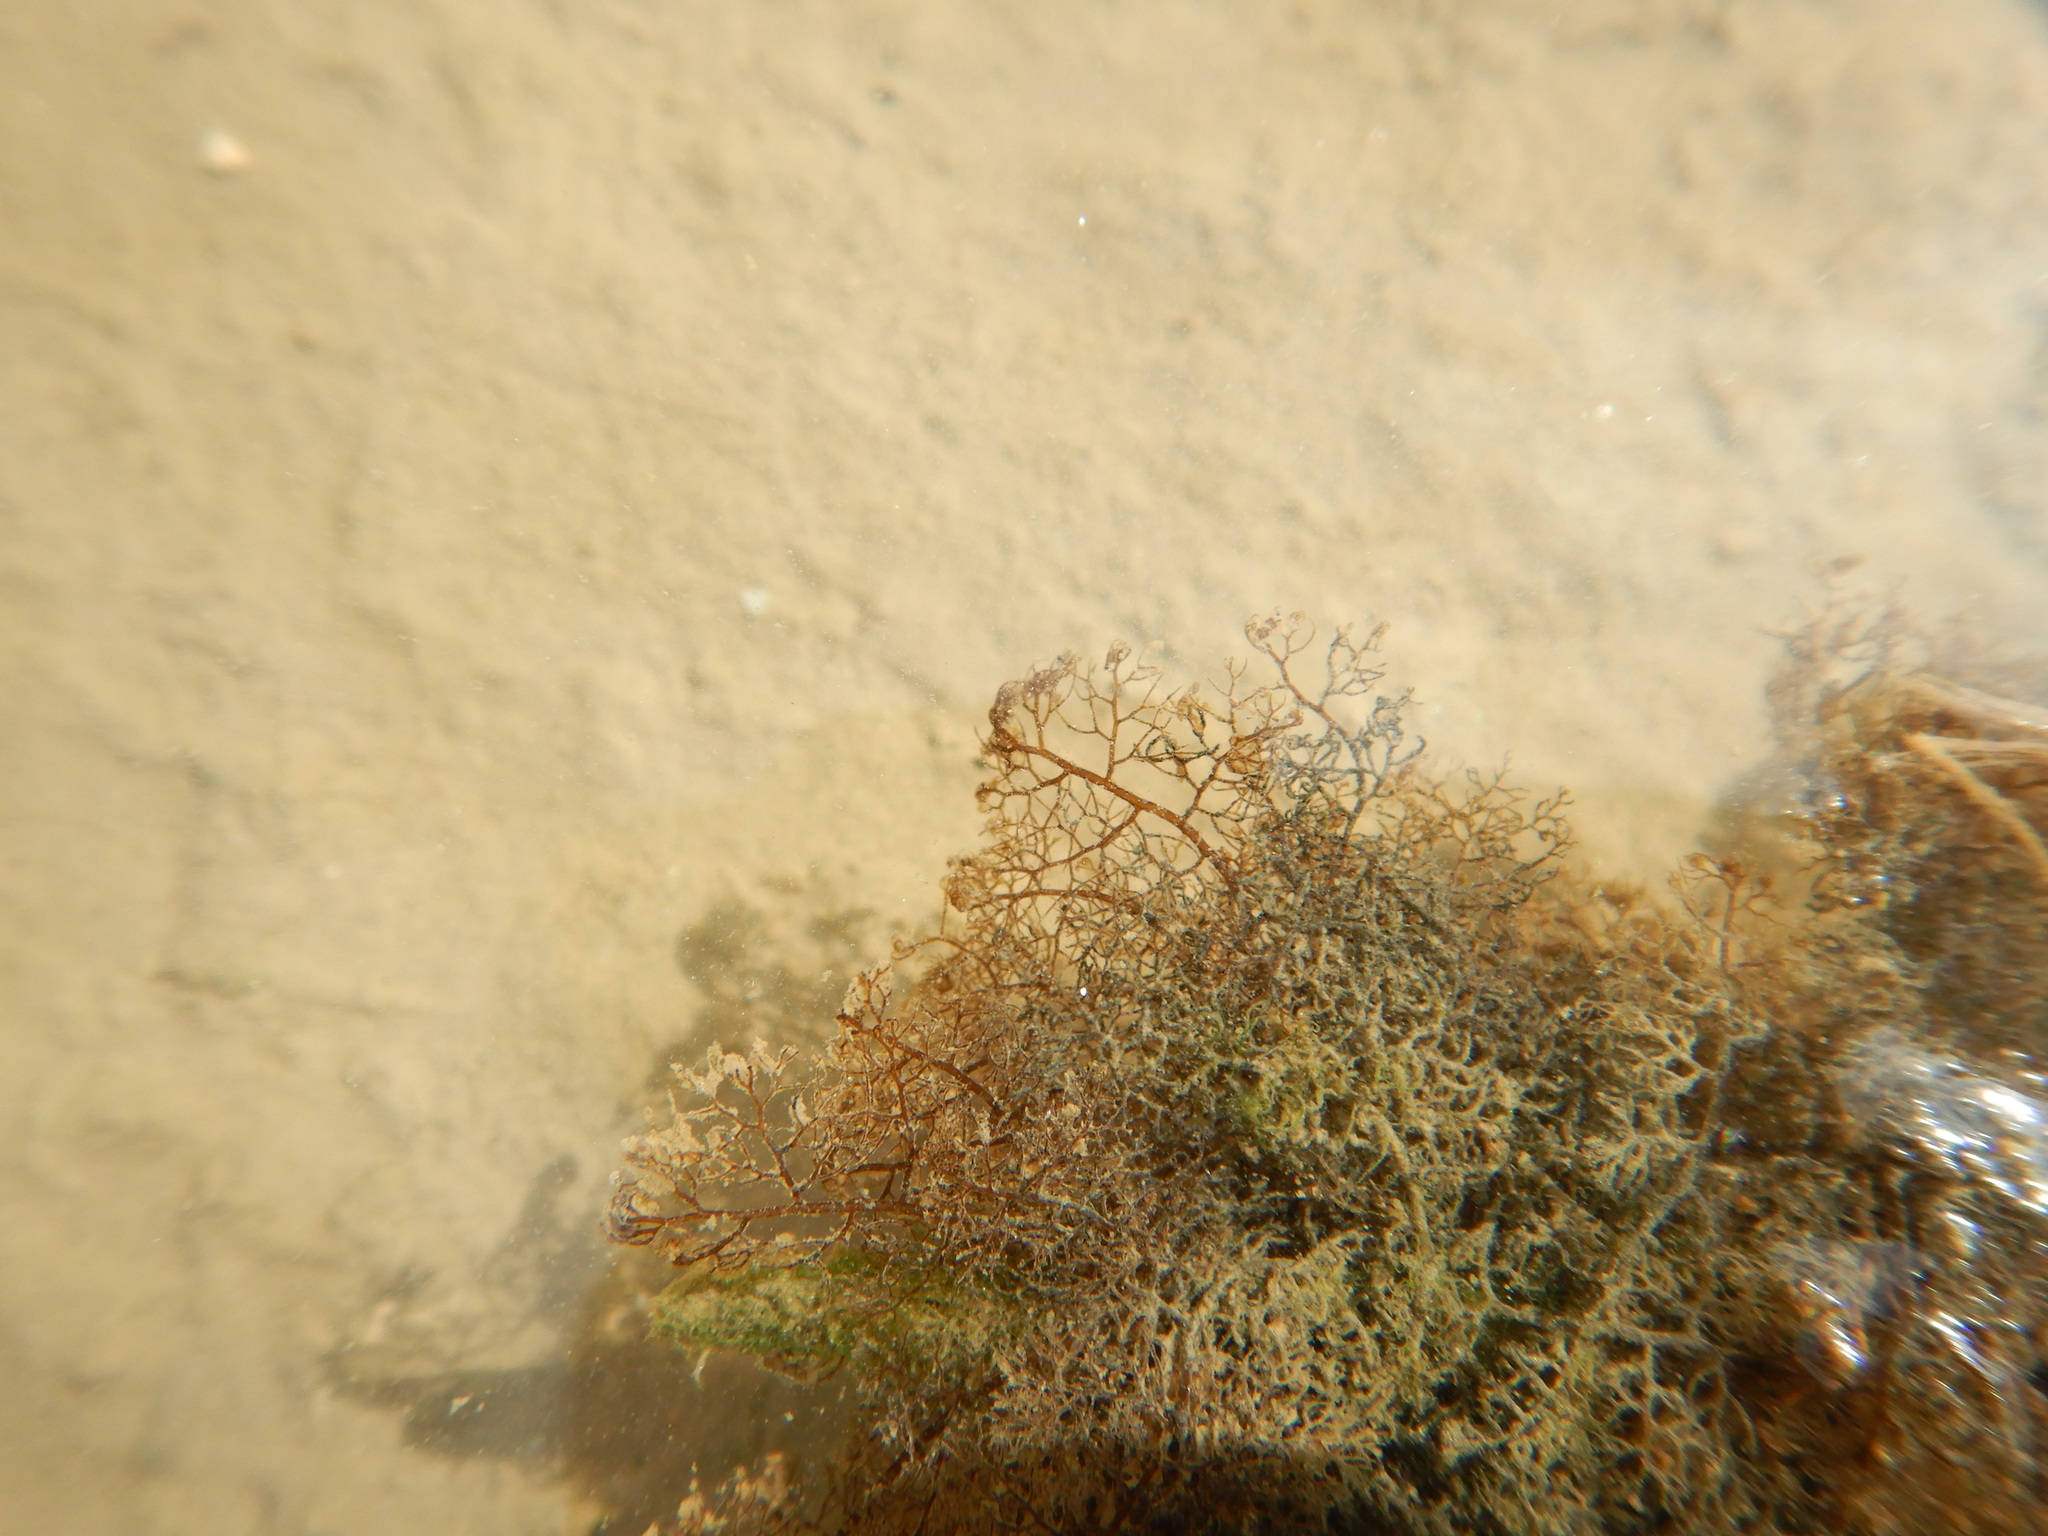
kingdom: Plantae
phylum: Rhodophyta
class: Florideophyceae
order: Ceramiales
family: Rhodomelaceae
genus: Bostrychia
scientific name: Bostrychia montagnei
